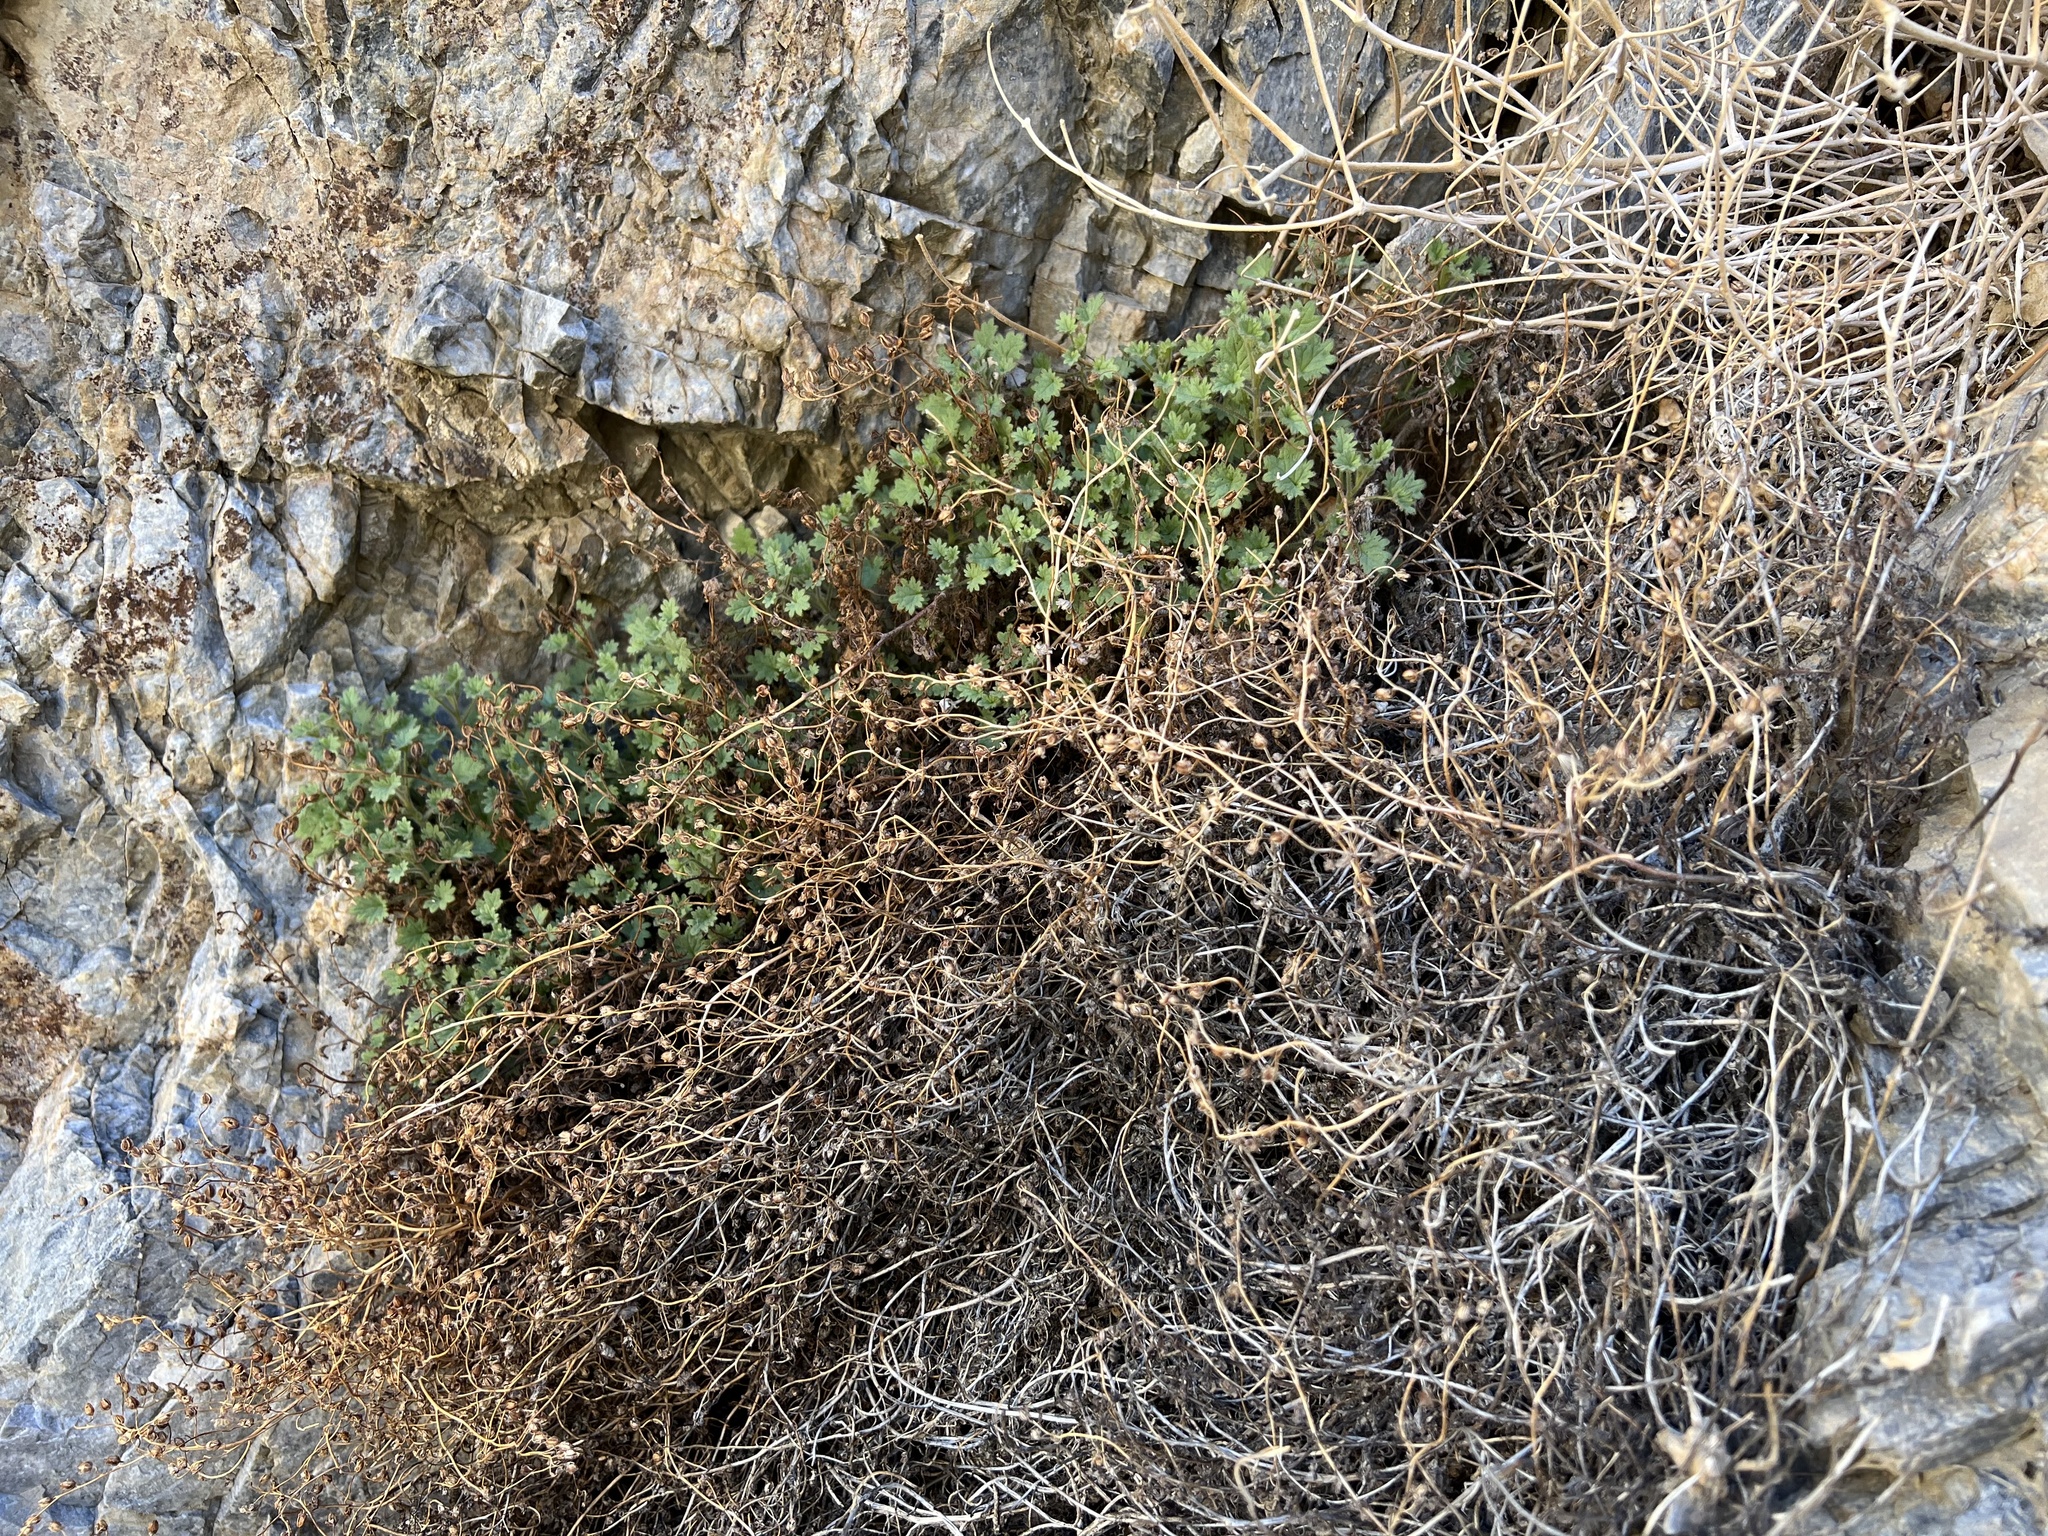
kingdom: Plantae
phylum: Tracheophyta
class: Magnoliopsida
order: Boraginales
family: Hydrophyllaceae
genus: Phacelia
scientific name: Phacelia perityloides
